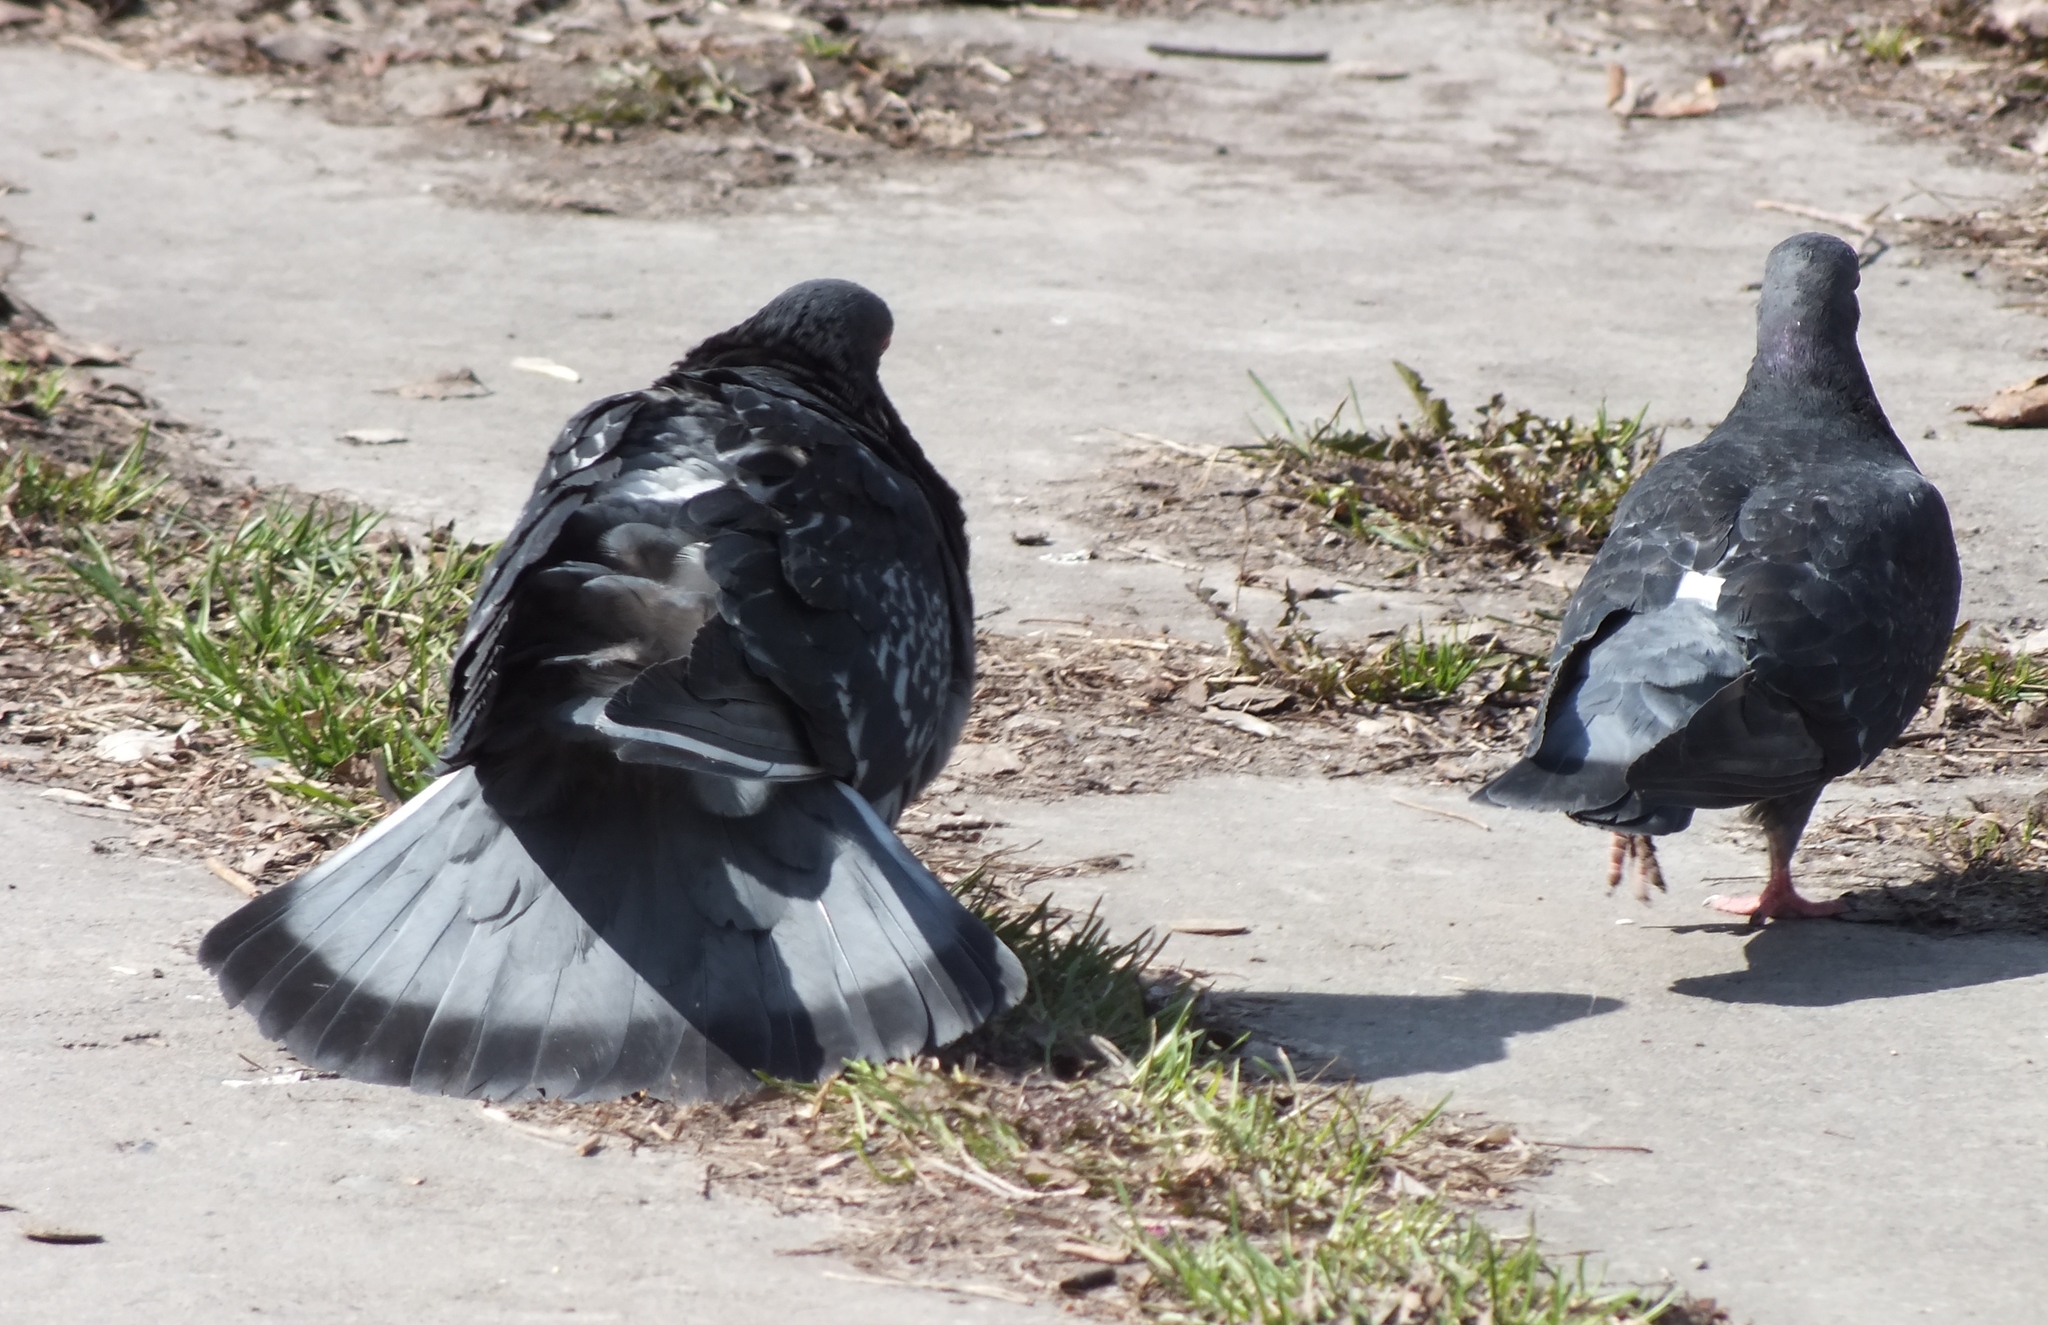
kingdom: Animalia
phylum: Chordata
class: Aves
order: Columbiformes
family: Columbidae
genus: Columba
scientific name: Columba livia
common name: Rock pigeon
